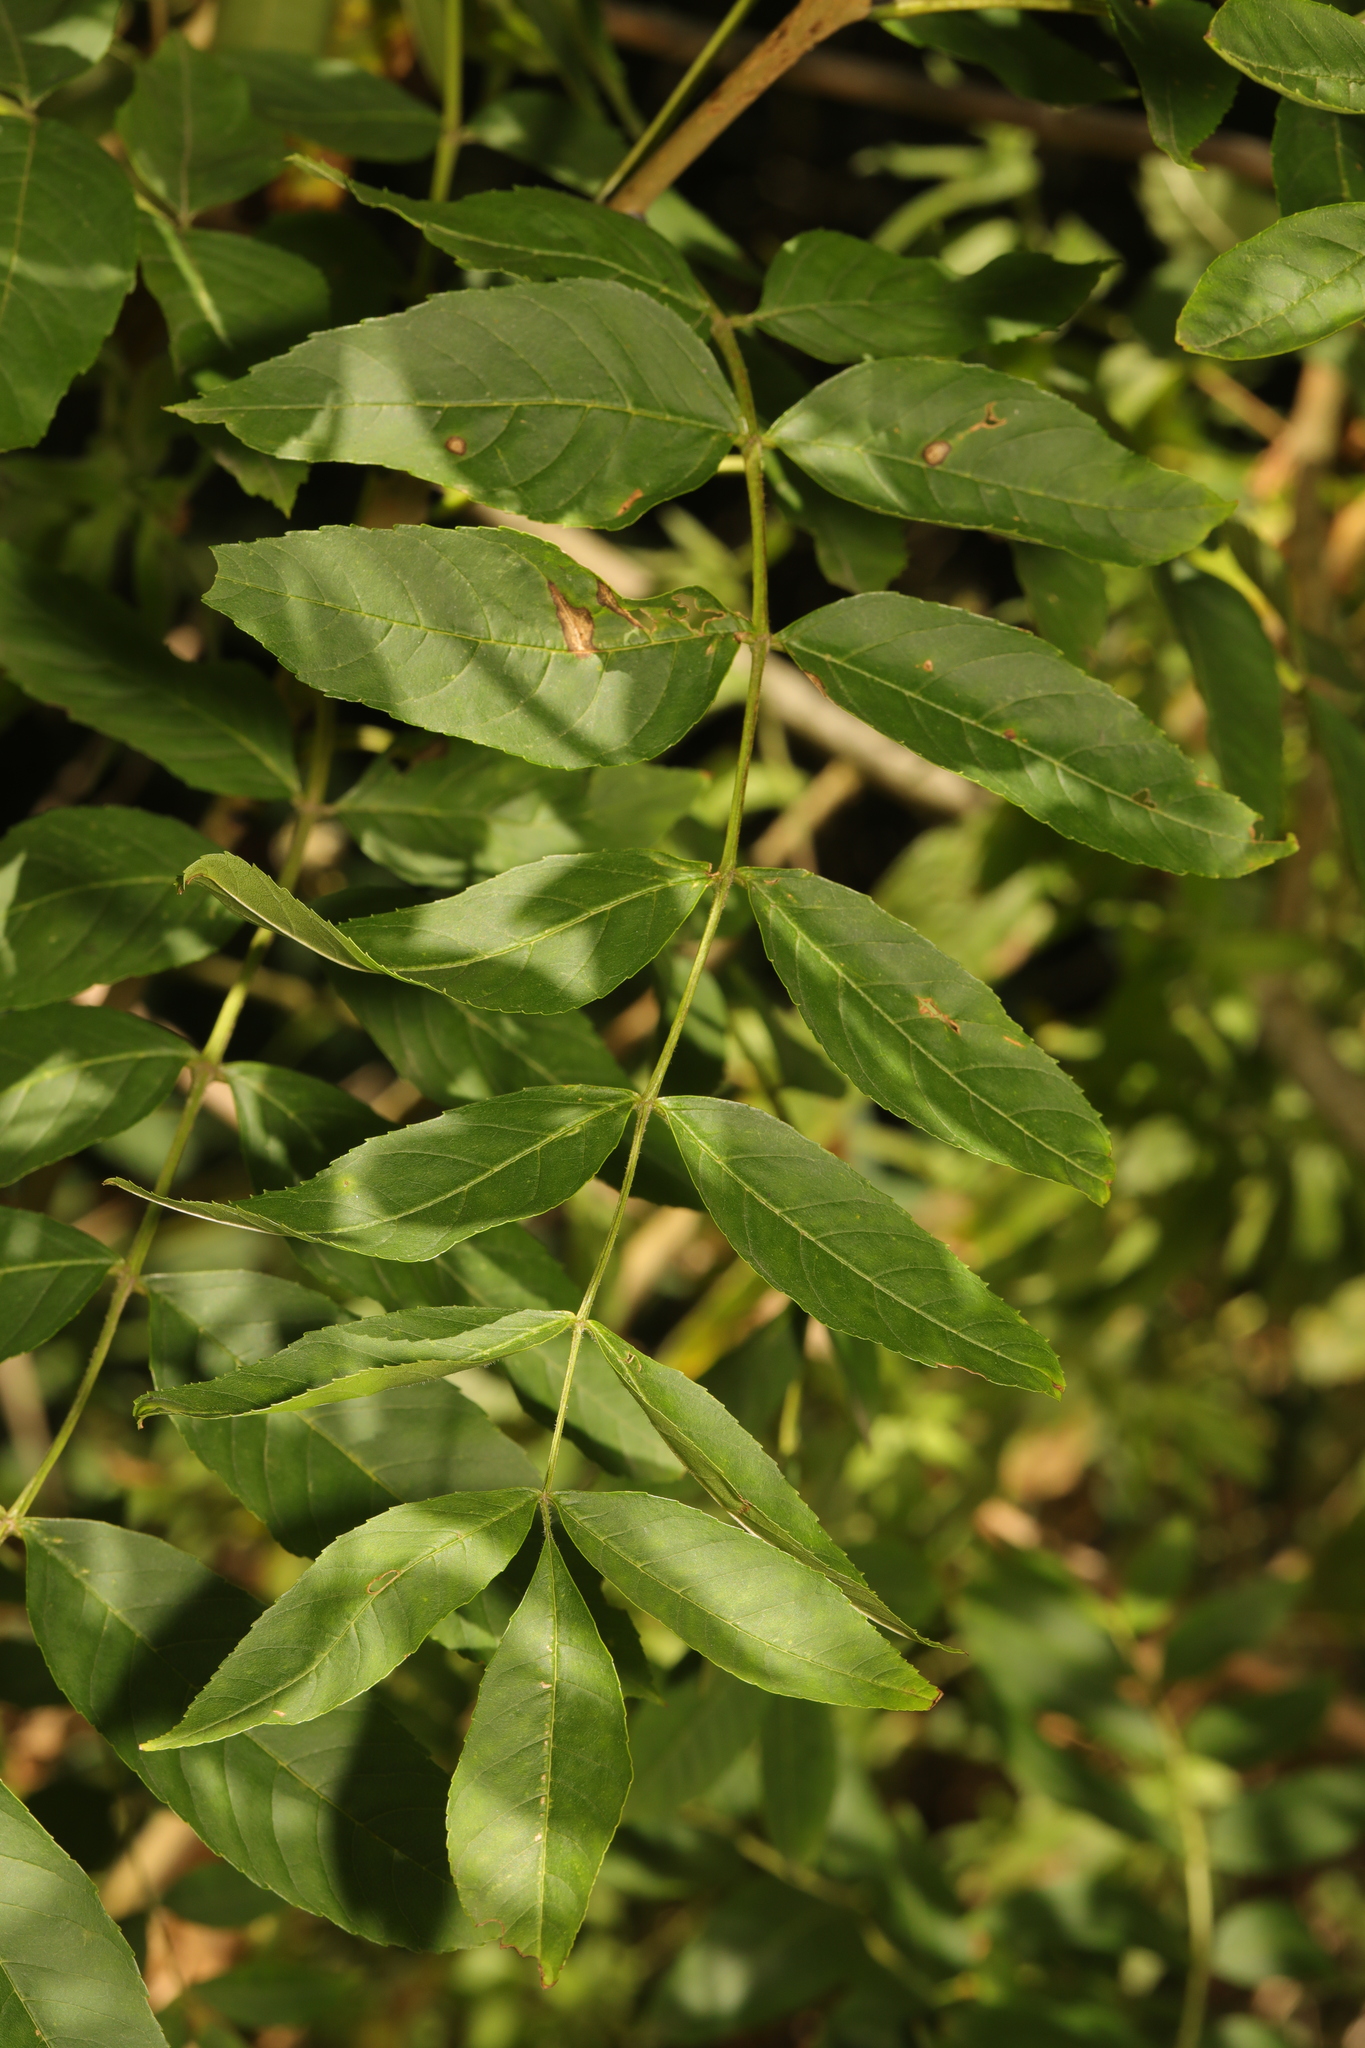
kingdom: Plantae
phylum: Tracheophyta
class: Magnoliopsida
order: Lamiales
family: Oleaceae
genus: Fraxinus
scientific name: Fraxinus excelsior
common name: European ash
